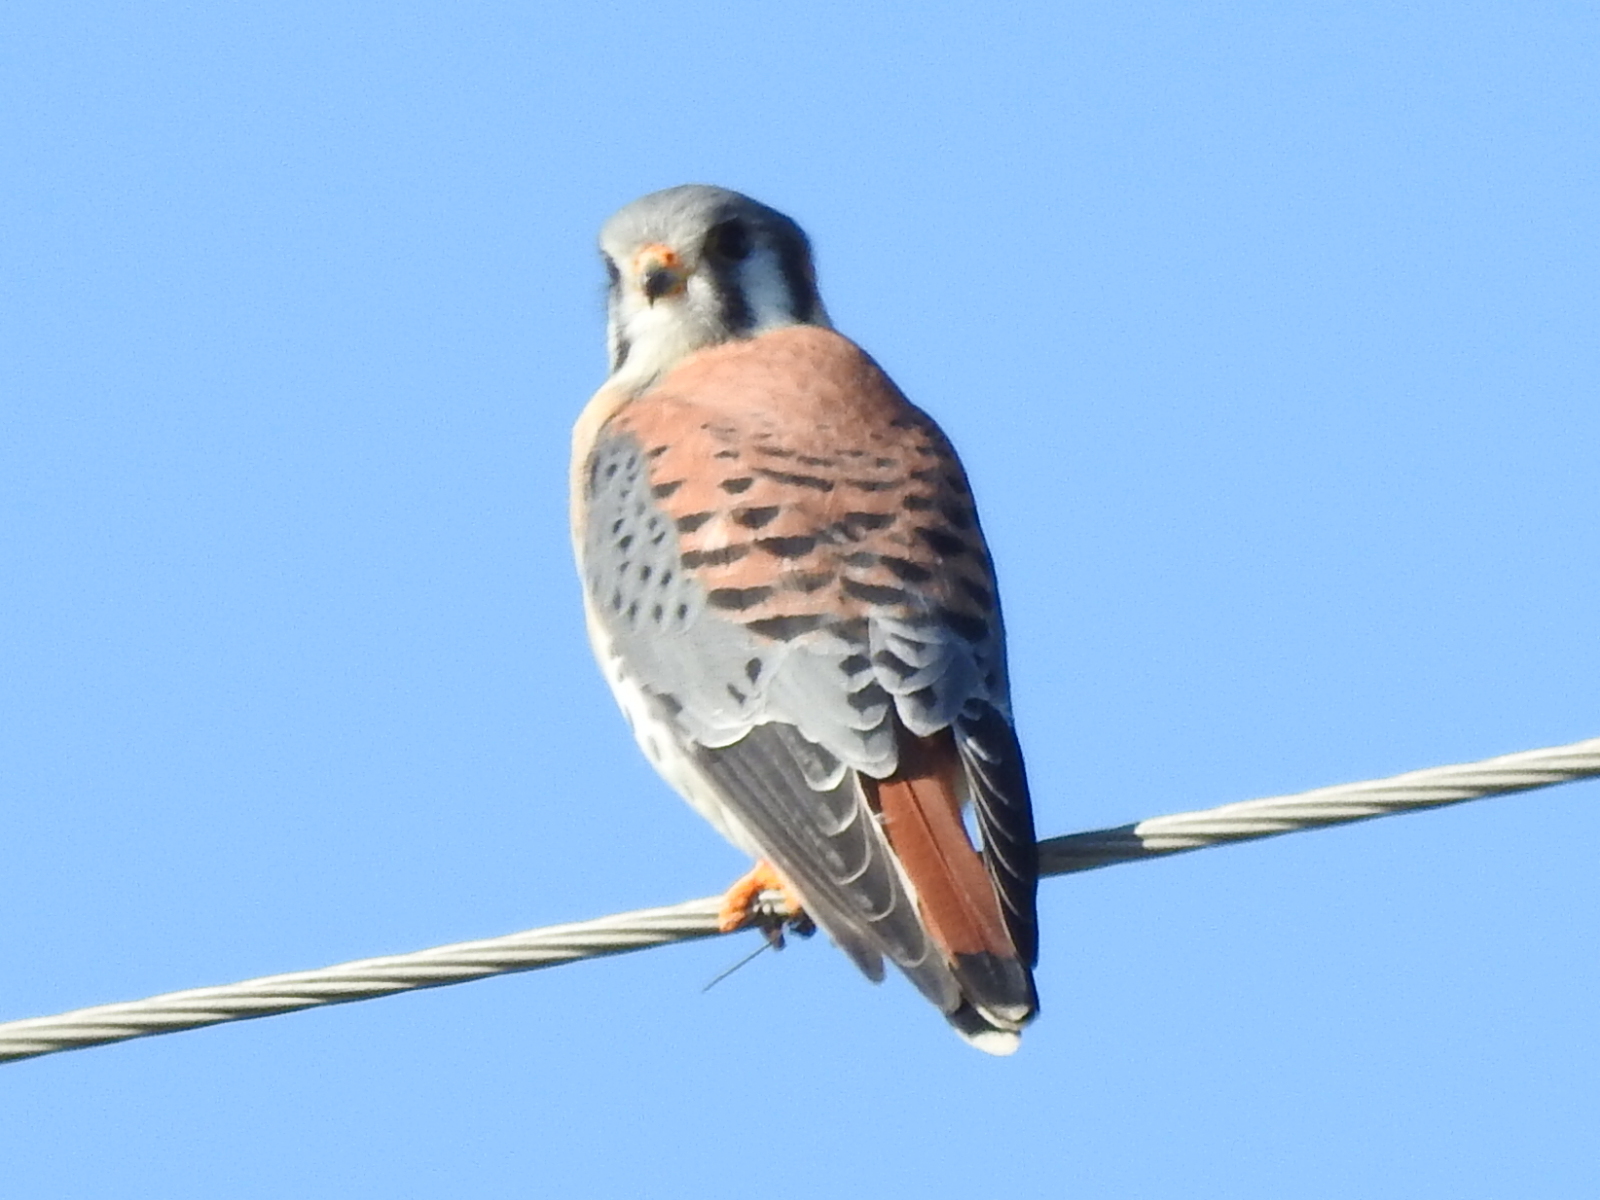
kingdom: Animalia
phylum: Chordata
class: Aves
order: Falconiformes
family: Falconidae
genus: Falco
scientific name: Falco sparverius
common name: American kestrel
